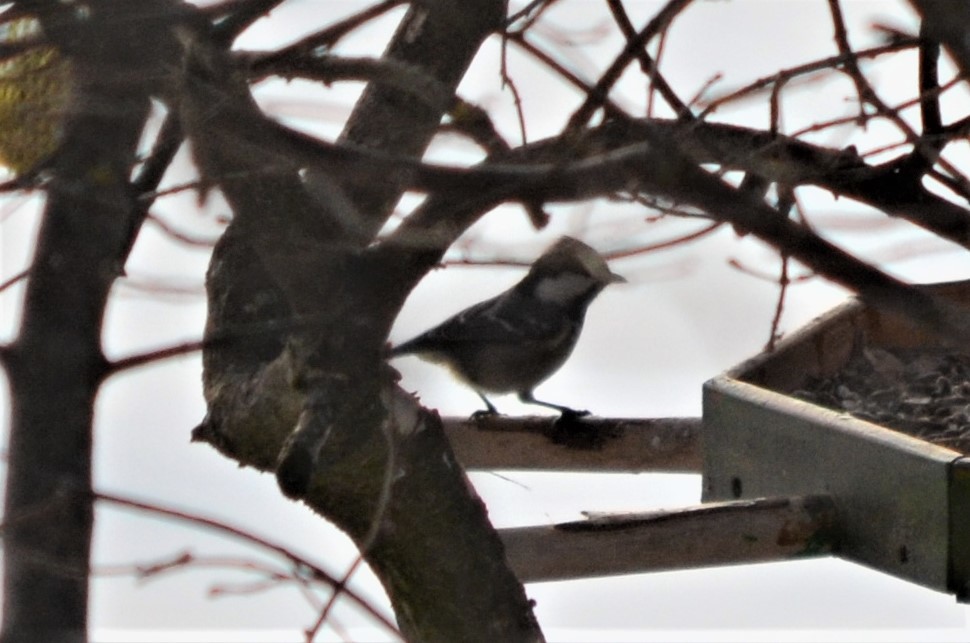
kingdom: Animalia
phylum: Chordata
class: Aves
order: Passeriformes
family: Paridae
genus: Periparus
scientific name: Periparus ater
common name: Coal tit
